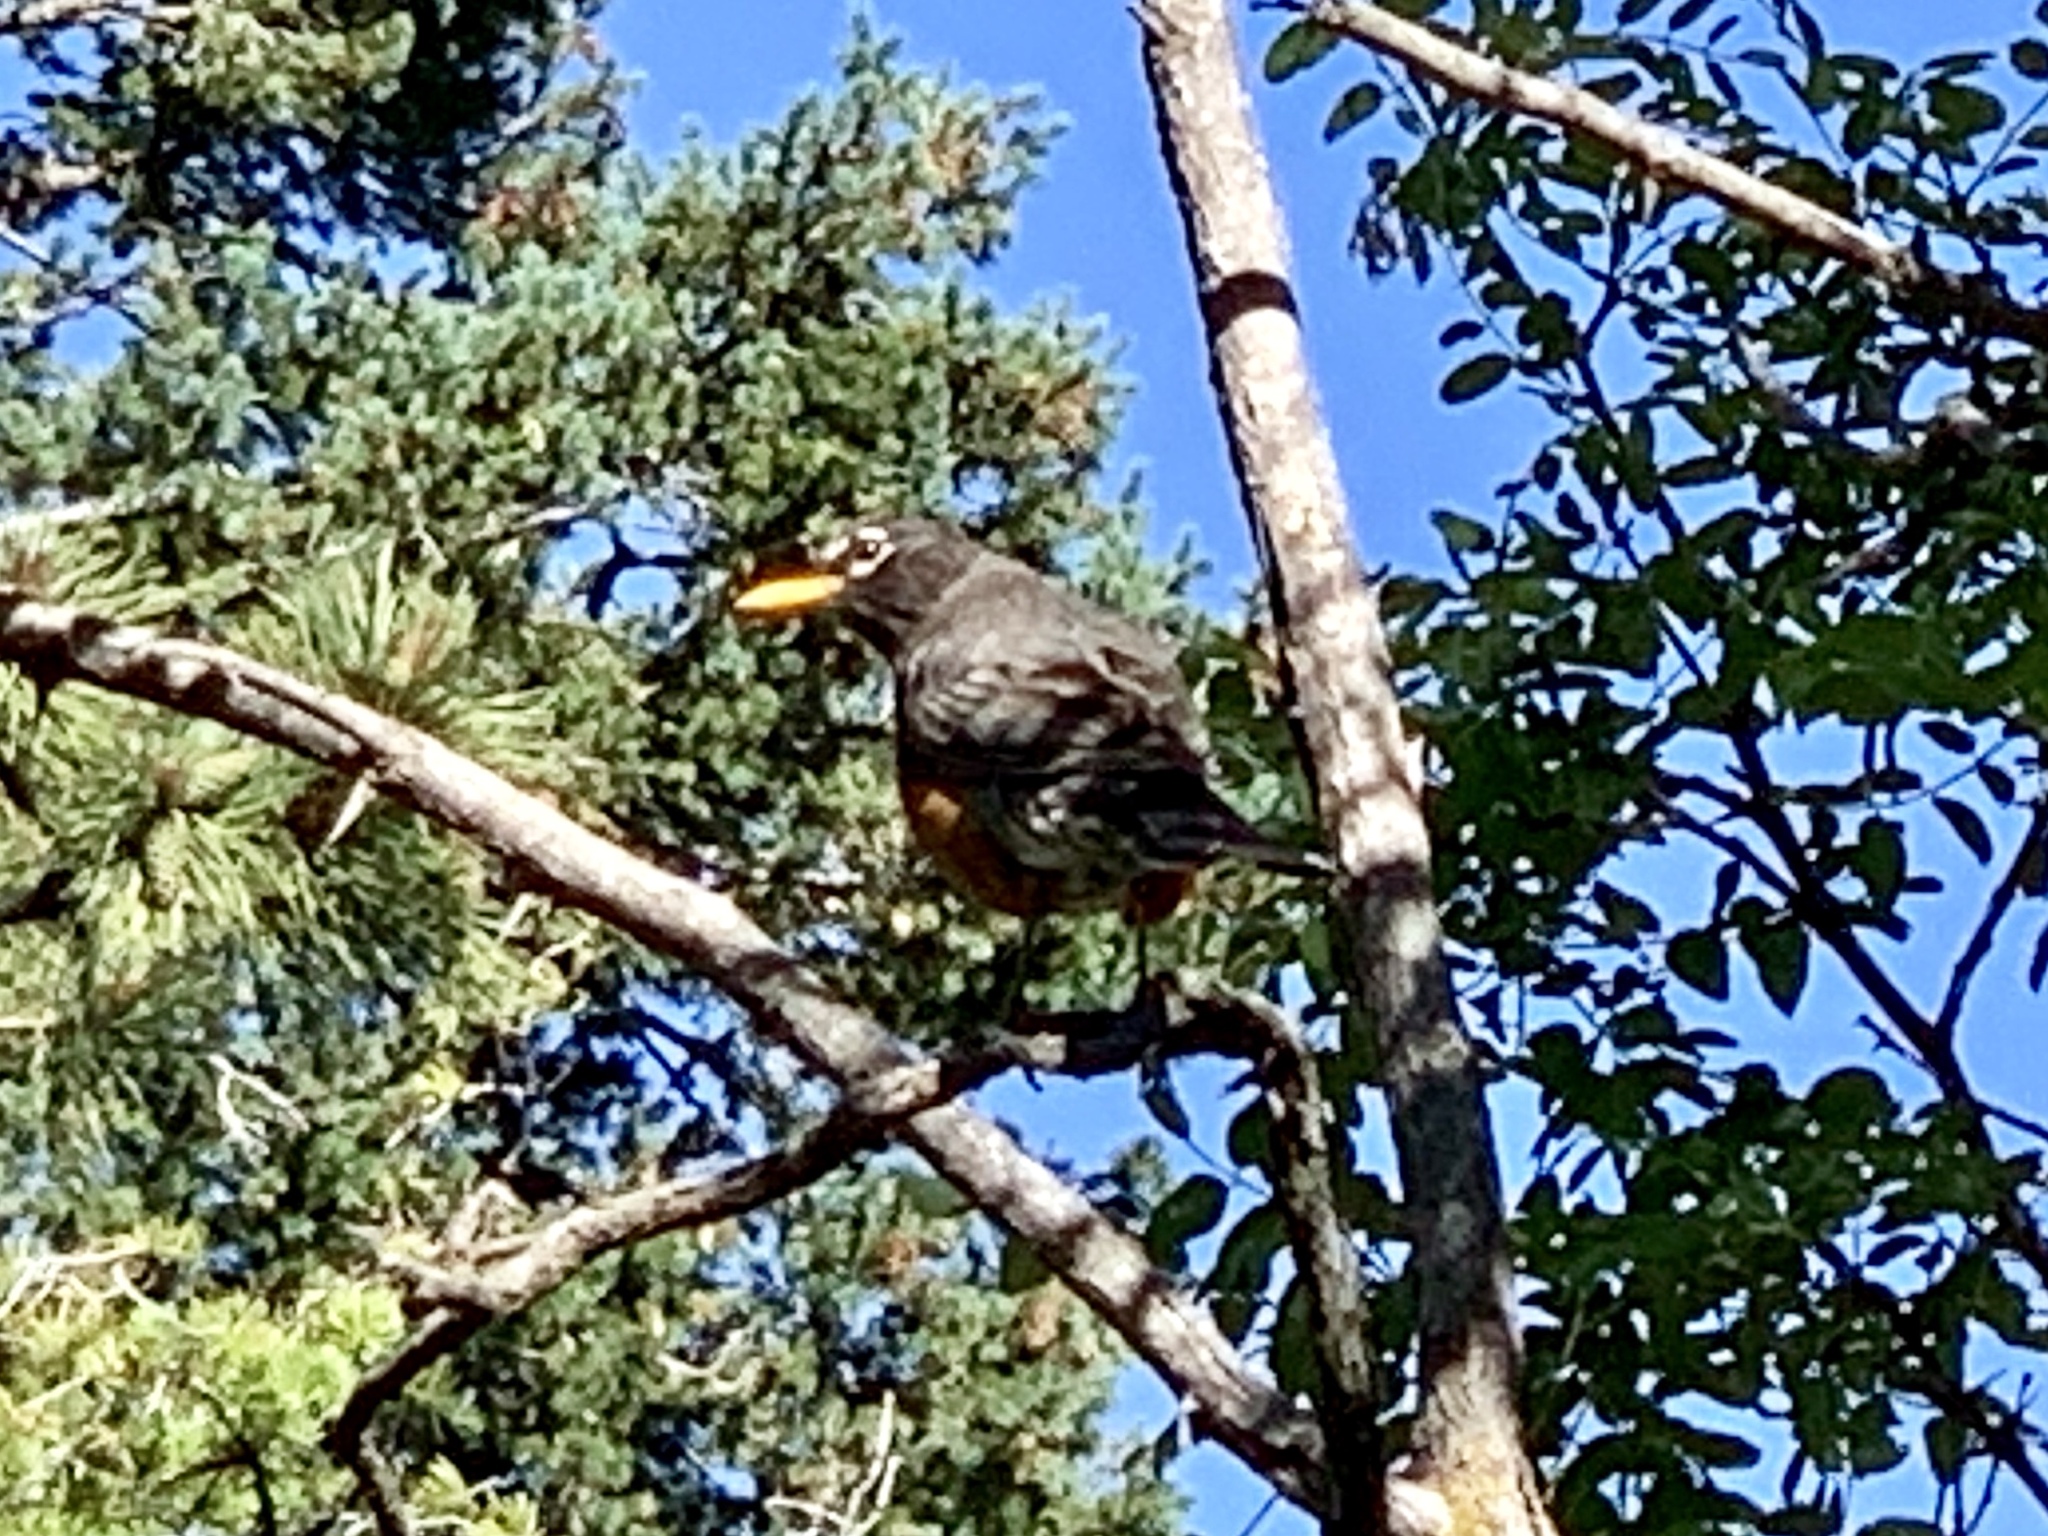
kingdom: Animalia
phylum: Chordata
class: Aves
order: Passeriformes
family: Turdidae
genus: Turdus
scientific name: Turdus migratorius
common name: American robin
